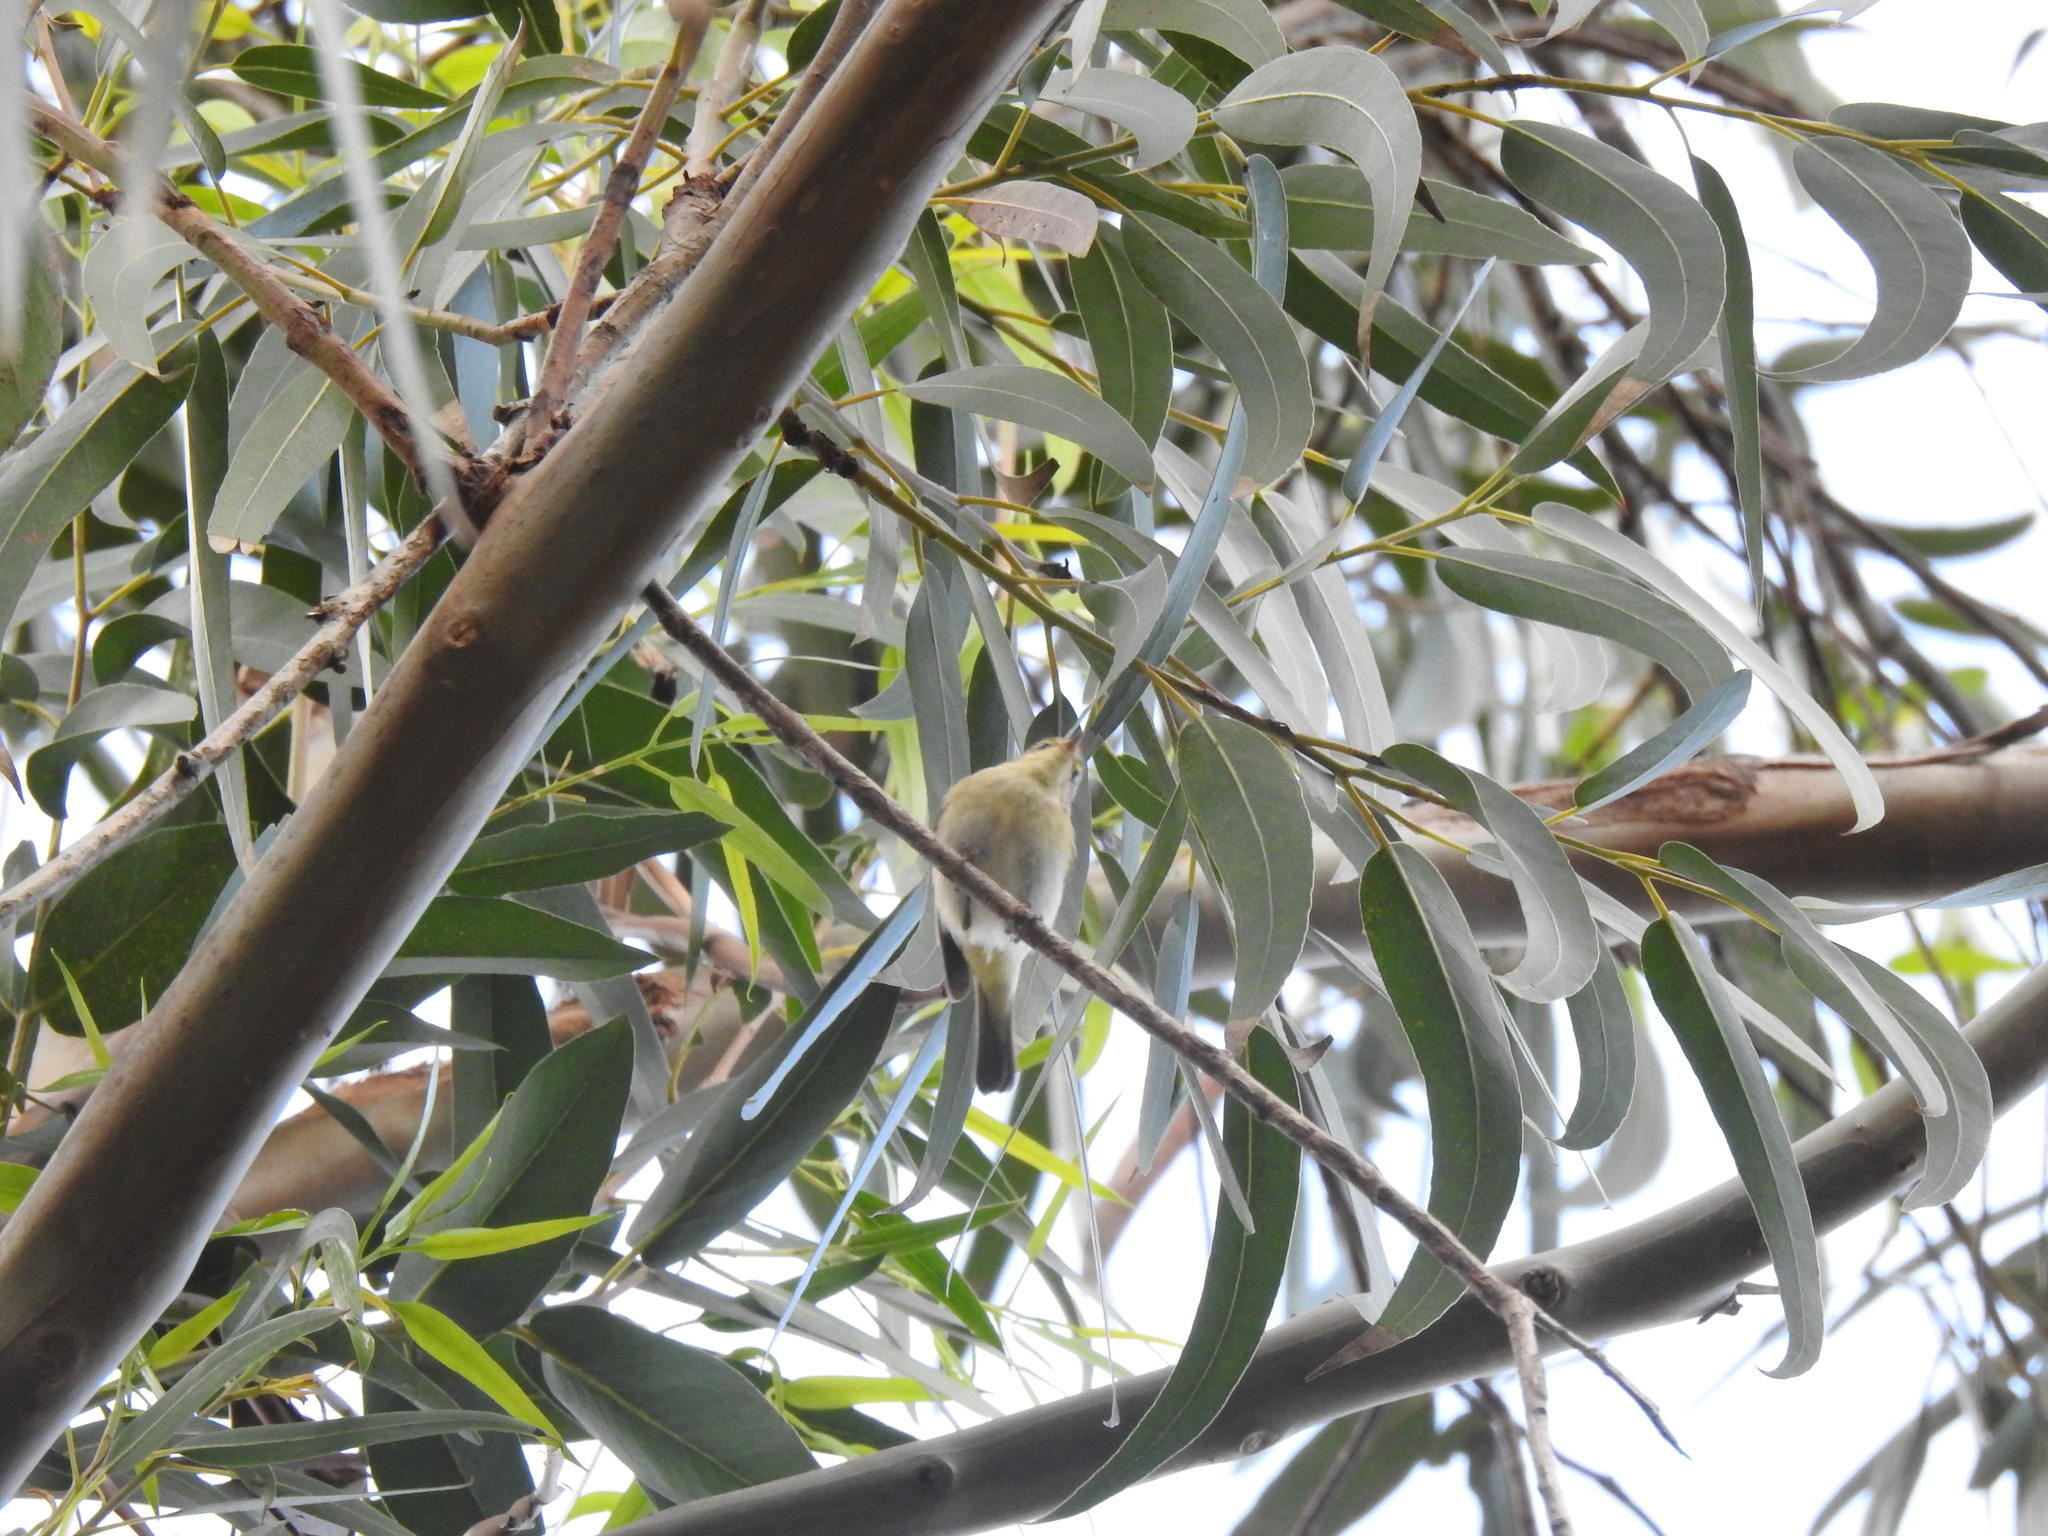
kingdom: Animalia
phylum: Chordata
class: Aves
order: Passeriformes
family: Phylloscopidae
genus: Phylloscopus
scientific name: Phylloscopus ibericus
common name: Iberian chiffchaff
